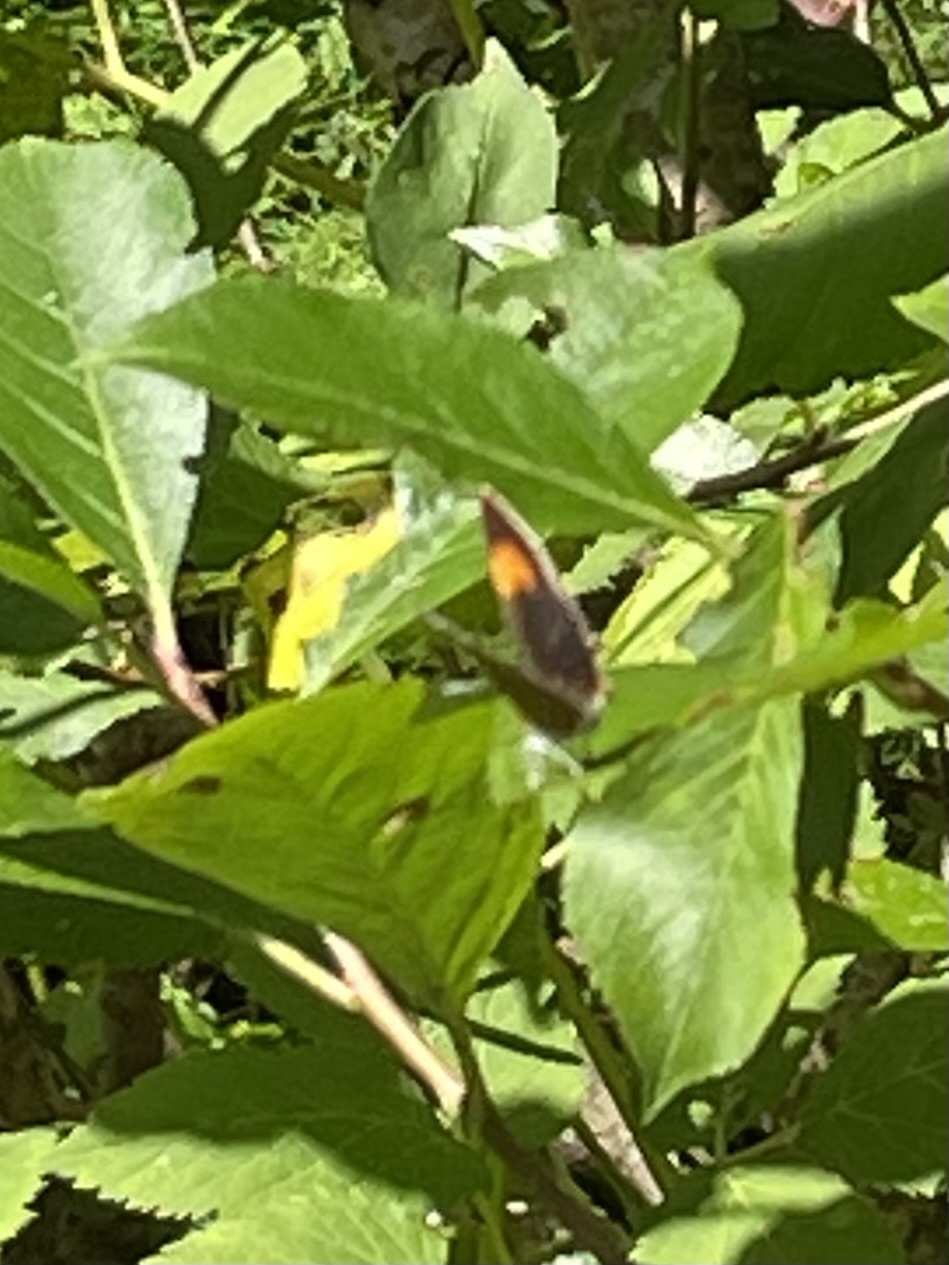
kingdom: Animalia
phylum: Arthropoda
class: Insecta
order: Lepidoptera
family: Lycaenidae
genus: Thecla
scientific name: Thecla betulae
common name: Brown hairstreak
